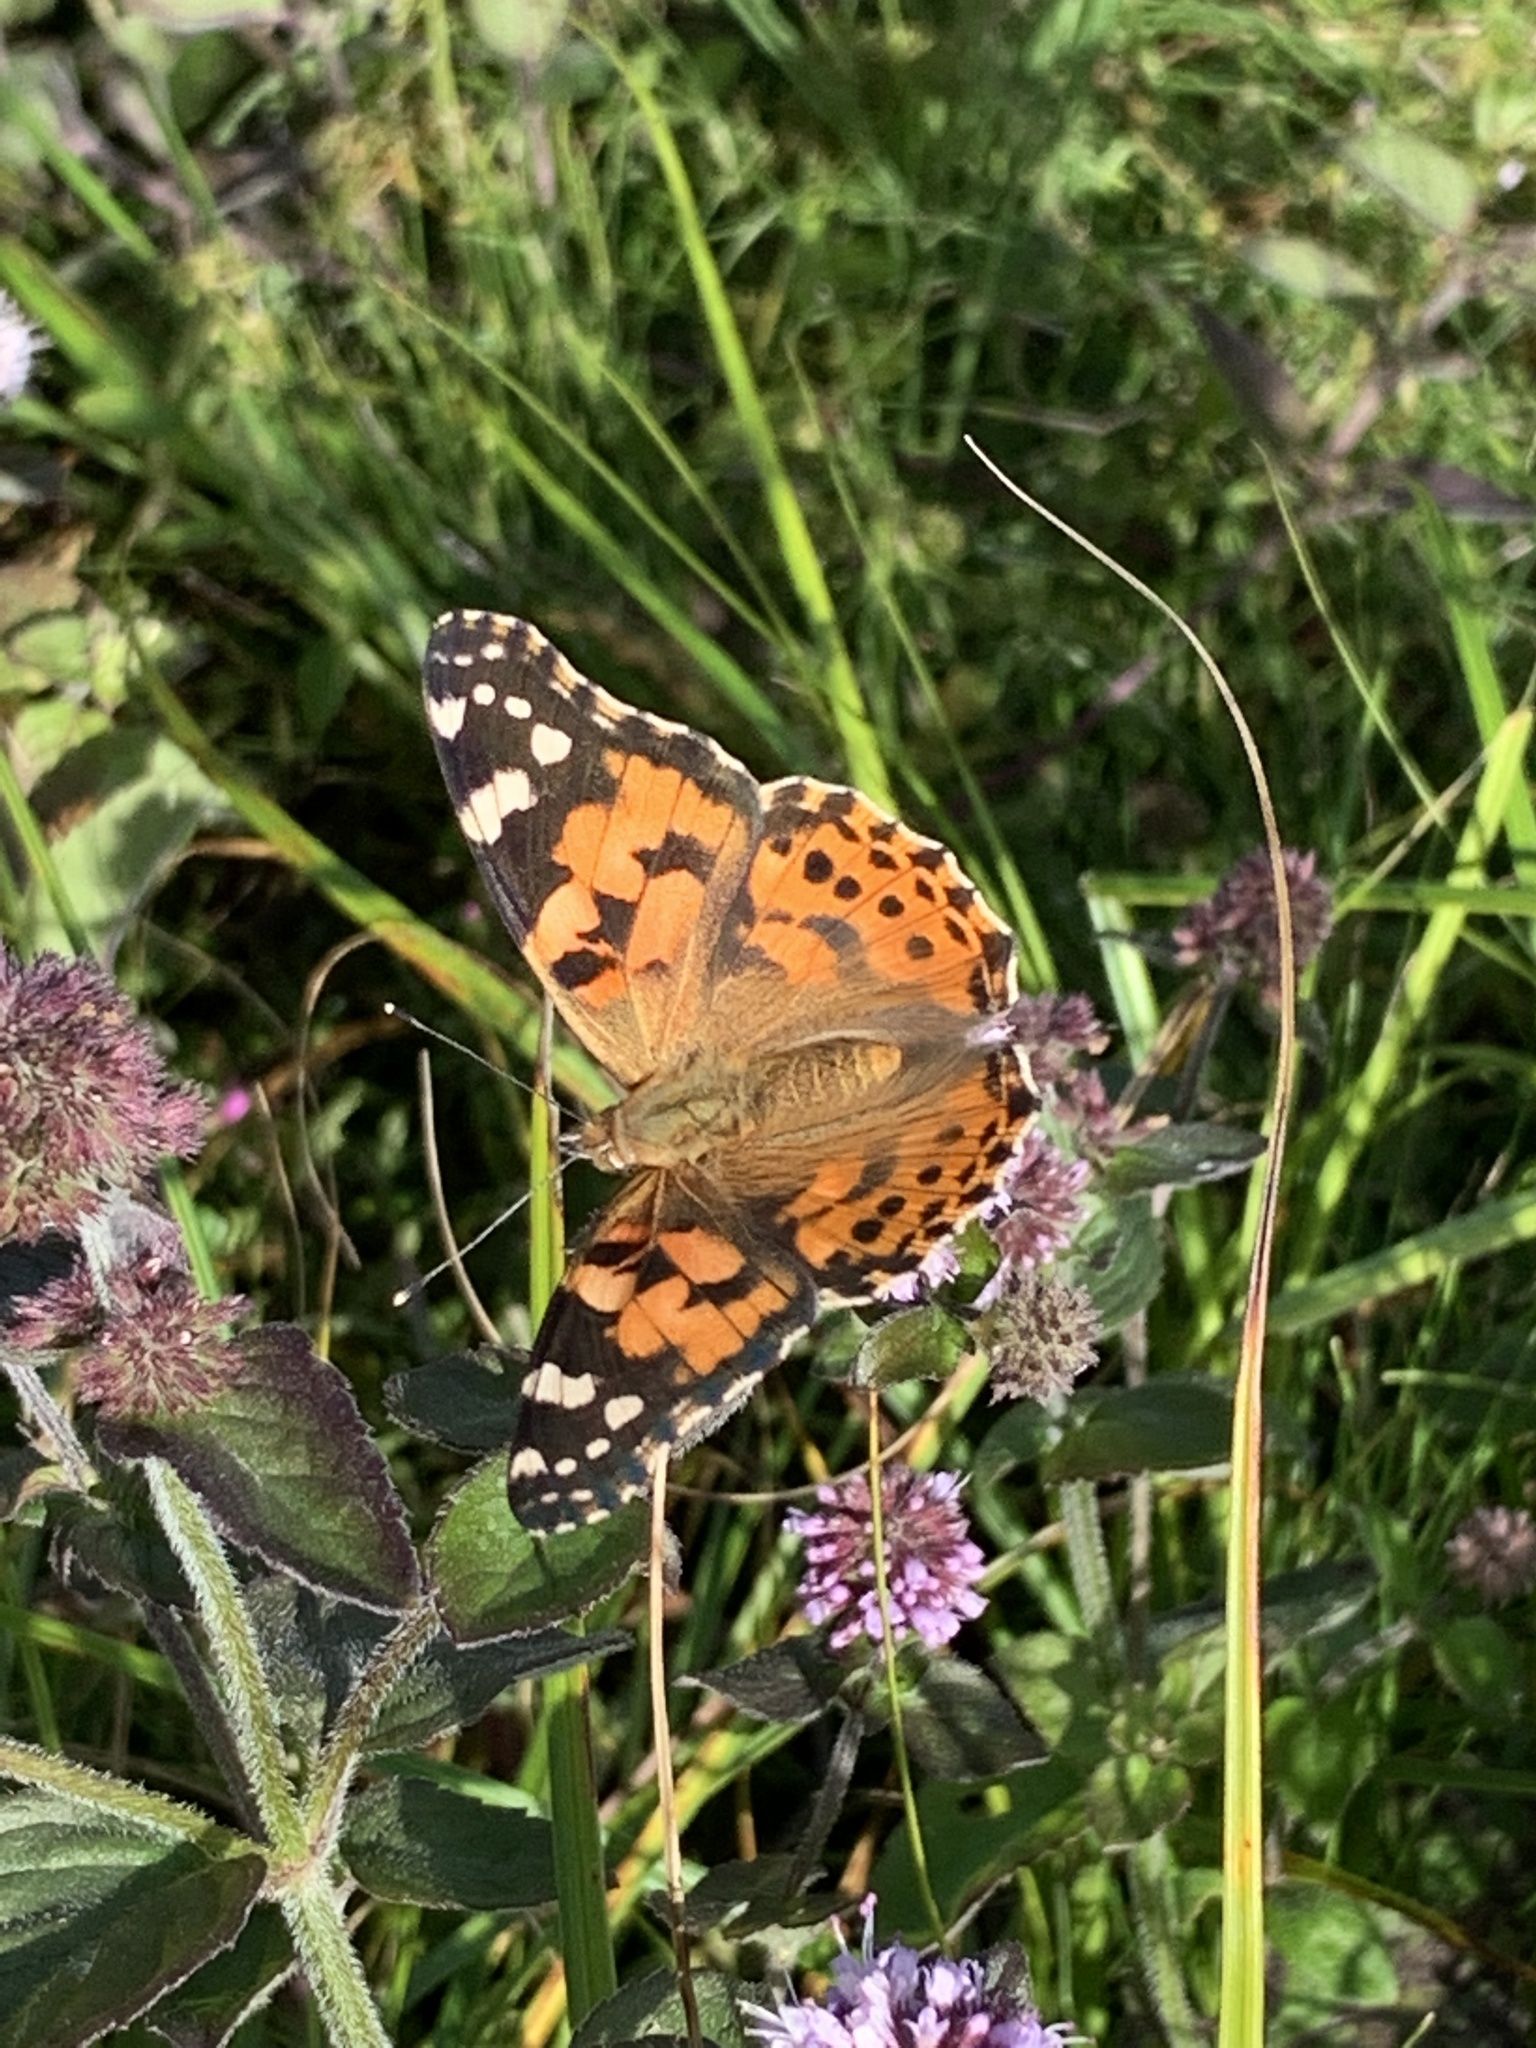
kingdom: Animalia
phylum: Arthropoda
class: Insecta
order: Lepidoptera
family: Nymphalidae
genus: Vanessa
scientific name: Vanessa cardui
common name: Painted lady
